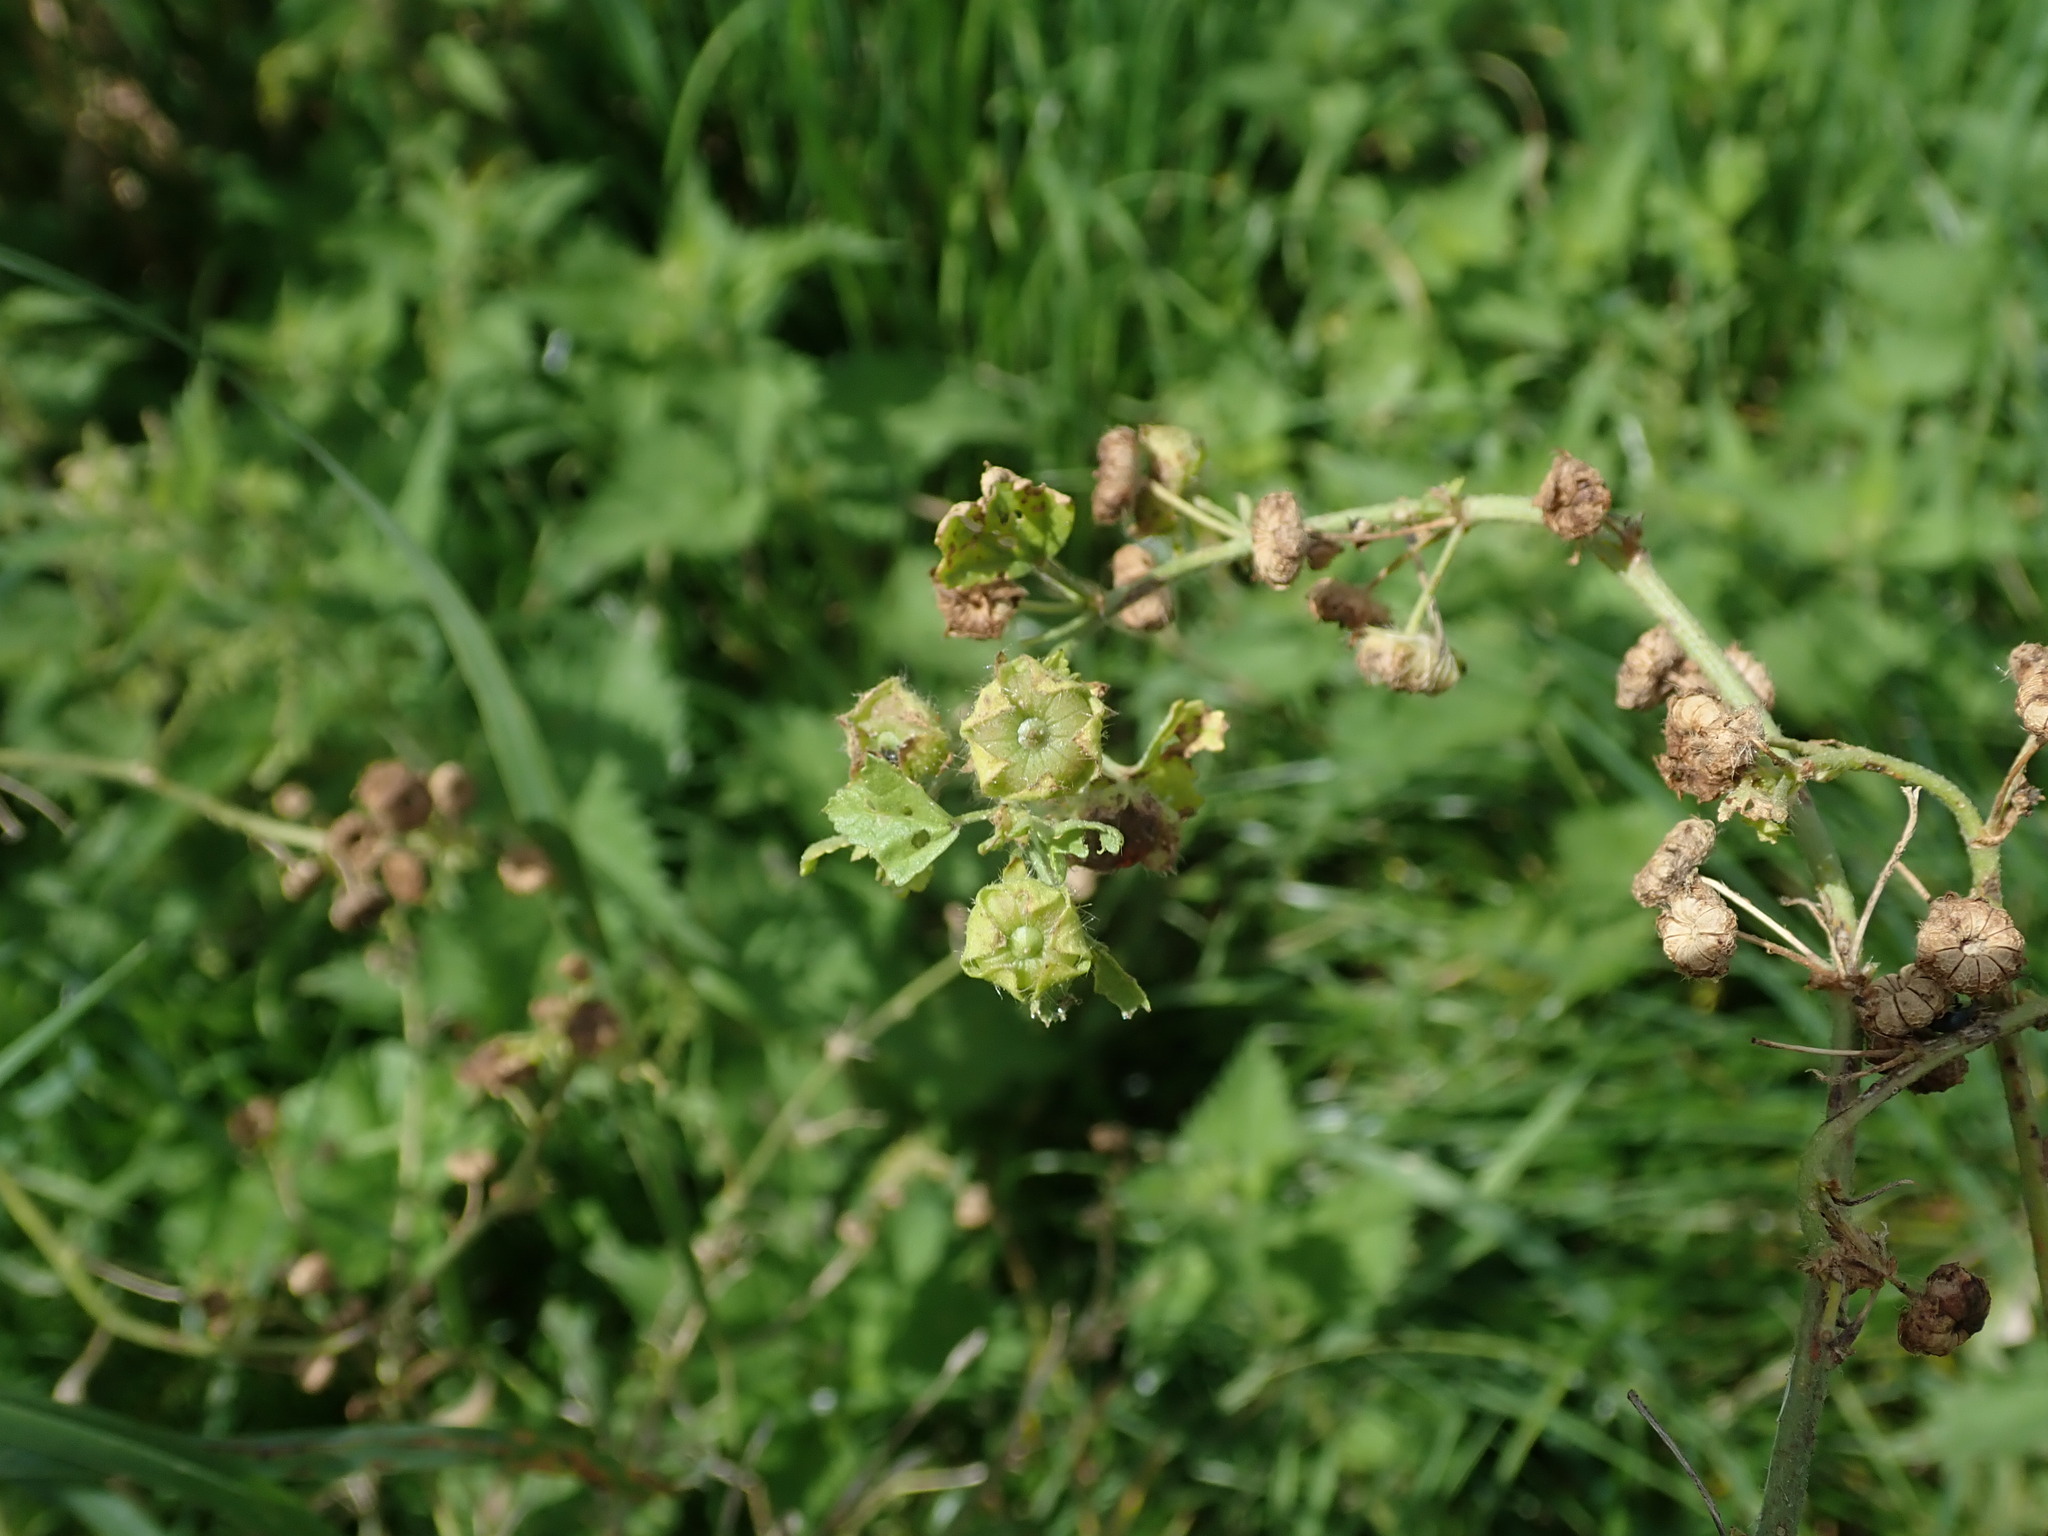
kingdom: Plantae
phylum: Tracheophyta
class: Magnoliopsida
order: Malvales
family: Malvaceae
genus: Malva
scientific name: Malva sylvestris
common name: Common mallow
